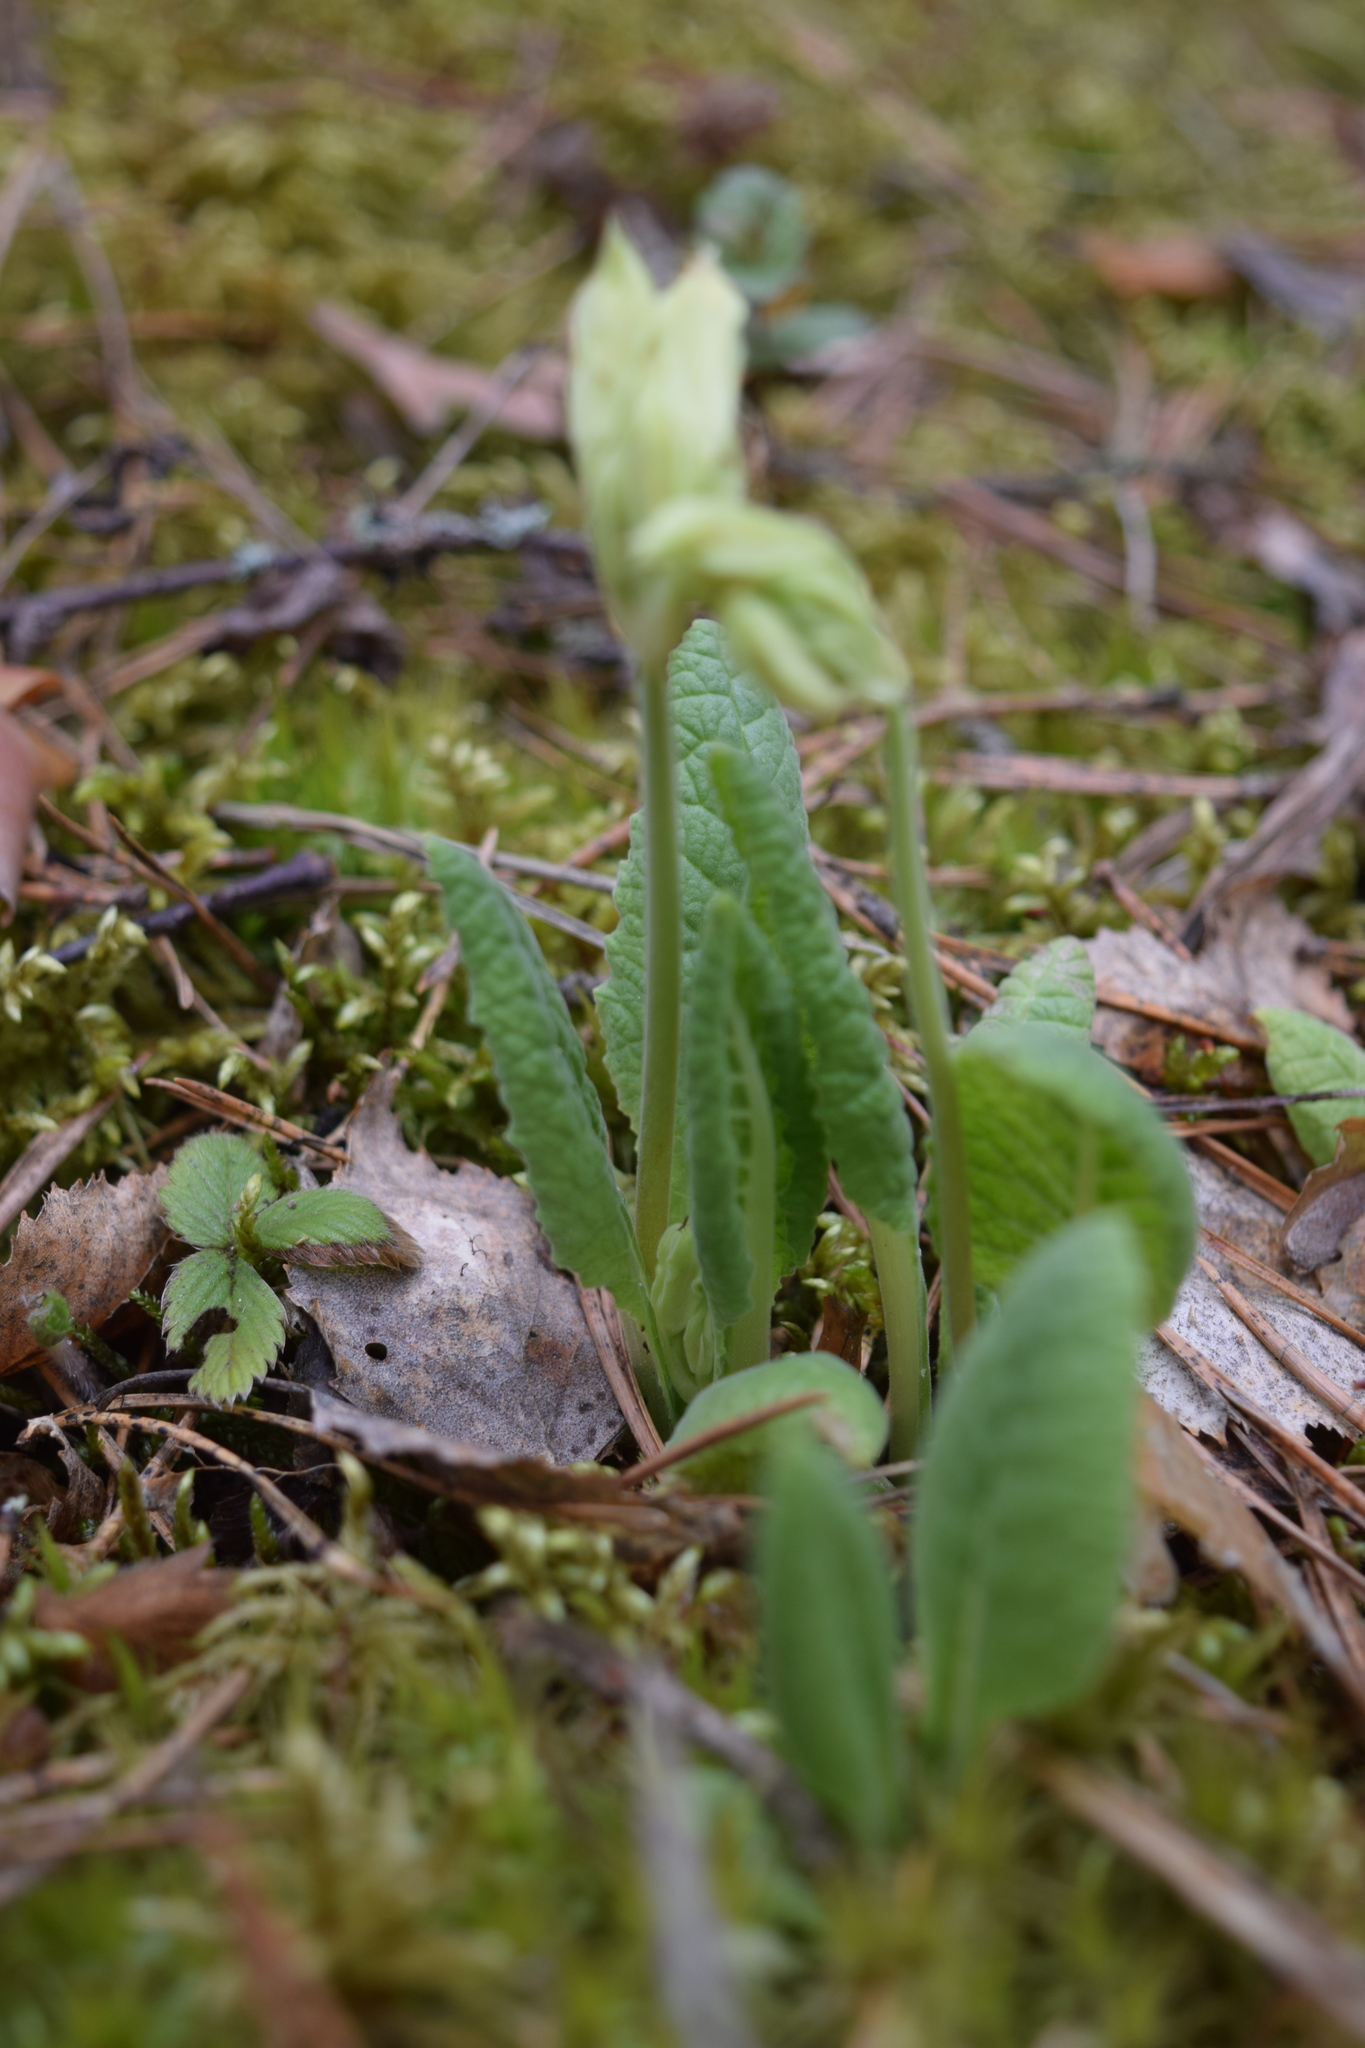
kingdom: Plantae
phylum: Tracheophyta
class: Magnoliopsida
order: Ericales
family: Primulaceae
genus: Primula
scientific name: Primula veris
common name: Cowslip
